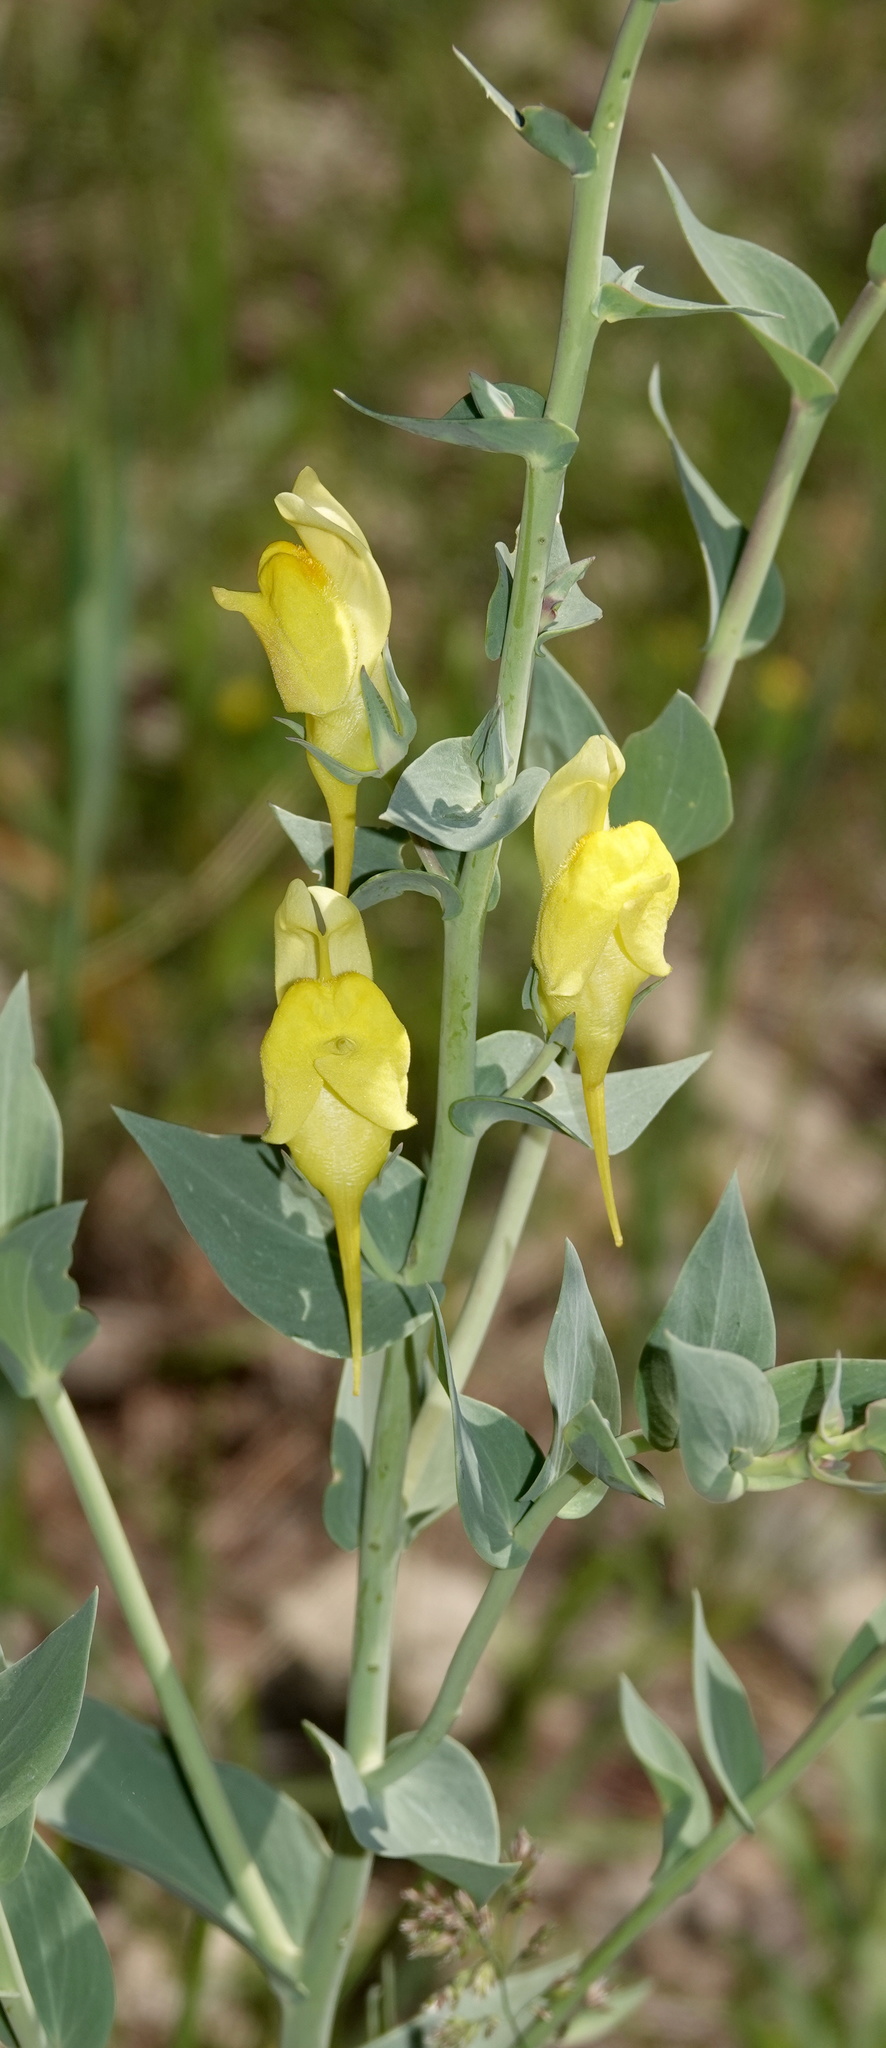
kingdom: Plantae
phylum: Tracheophyta
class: Magnoliopsida
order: Lamiales
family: Plantaginaceae
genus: Linaria
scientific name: Linaria dalmatica
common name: Dalmatian toadflax
